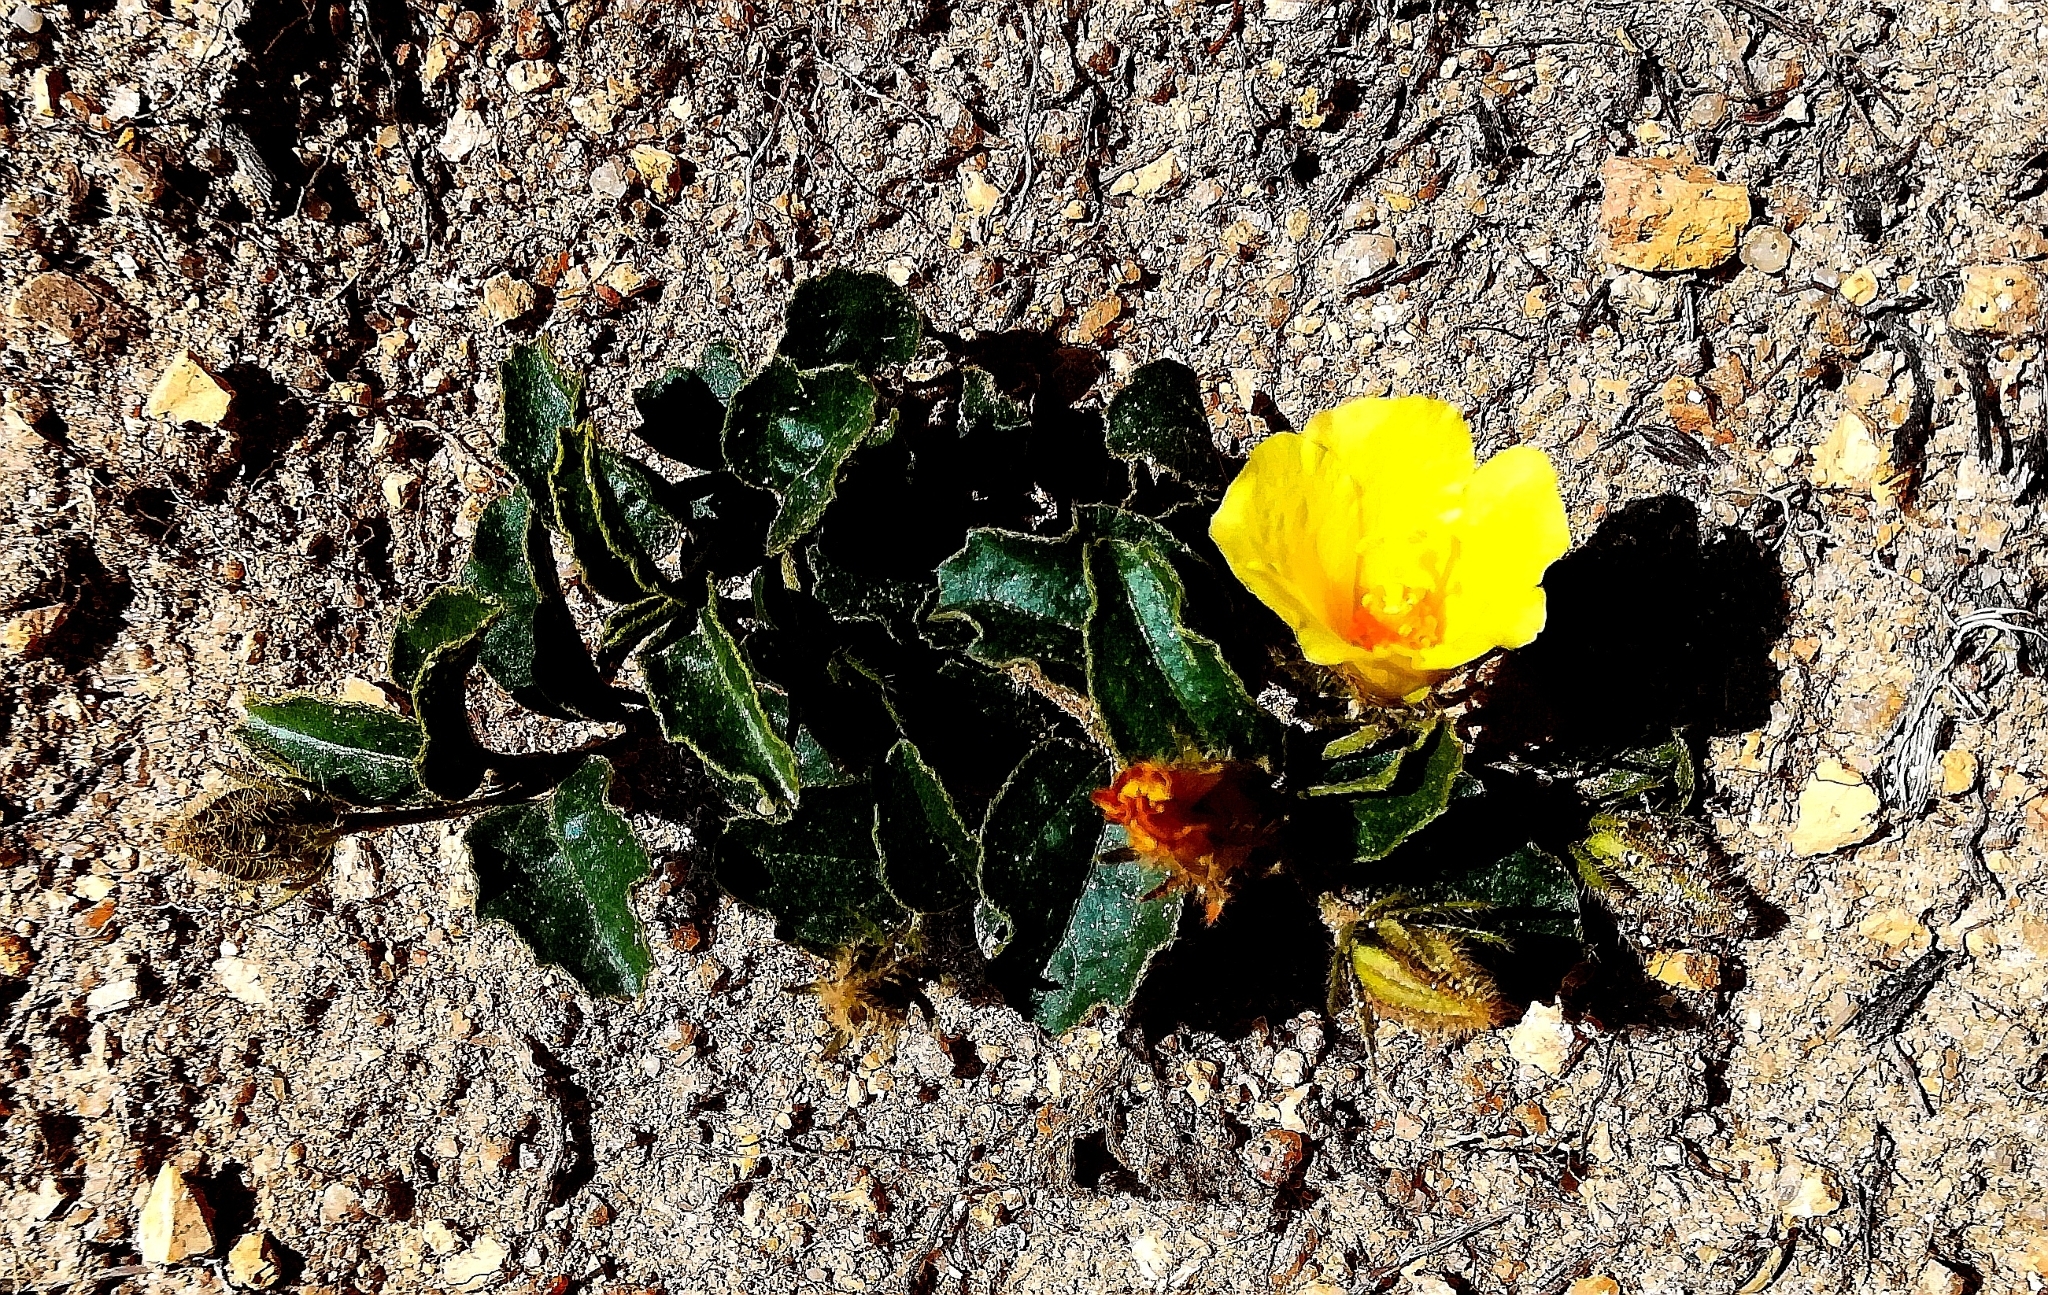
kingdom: Plantae
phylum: Tracheophyta
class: Magnoliopsida
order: Malvales
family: Malvaceae
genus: Hibiscus
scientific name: Hibiscus aethiopicus
